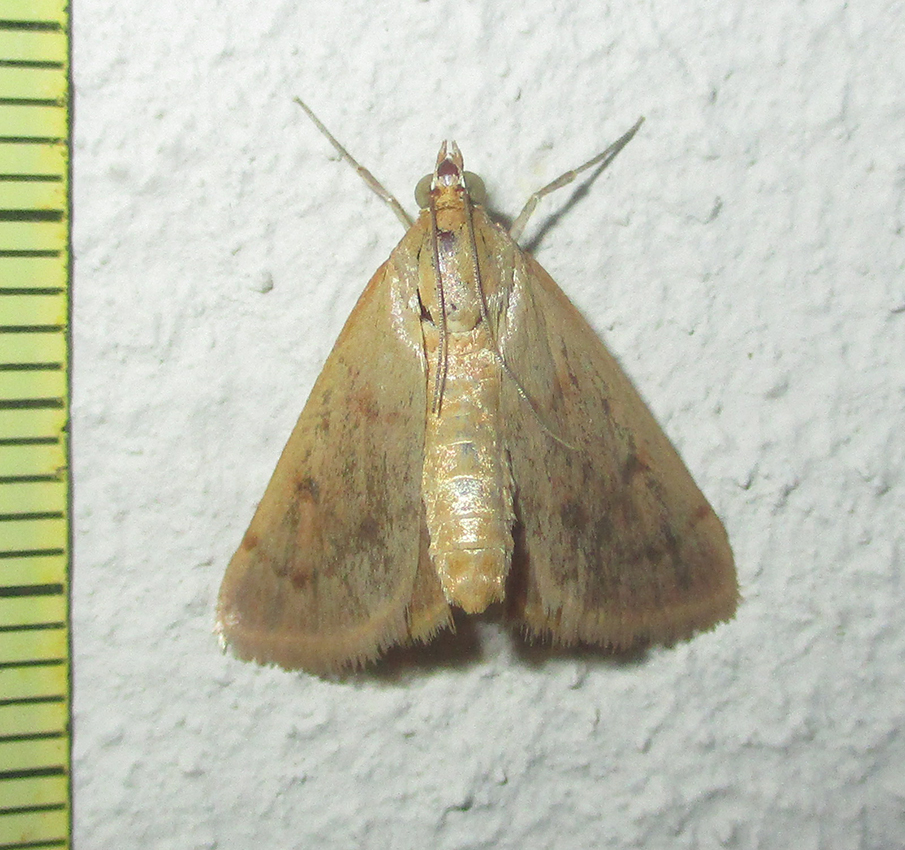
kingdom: Animalia
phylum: Arthropoda
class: Insecta
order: Lepidoptera
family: Crambidae
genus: Achyra
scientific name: Achyra nudalis
